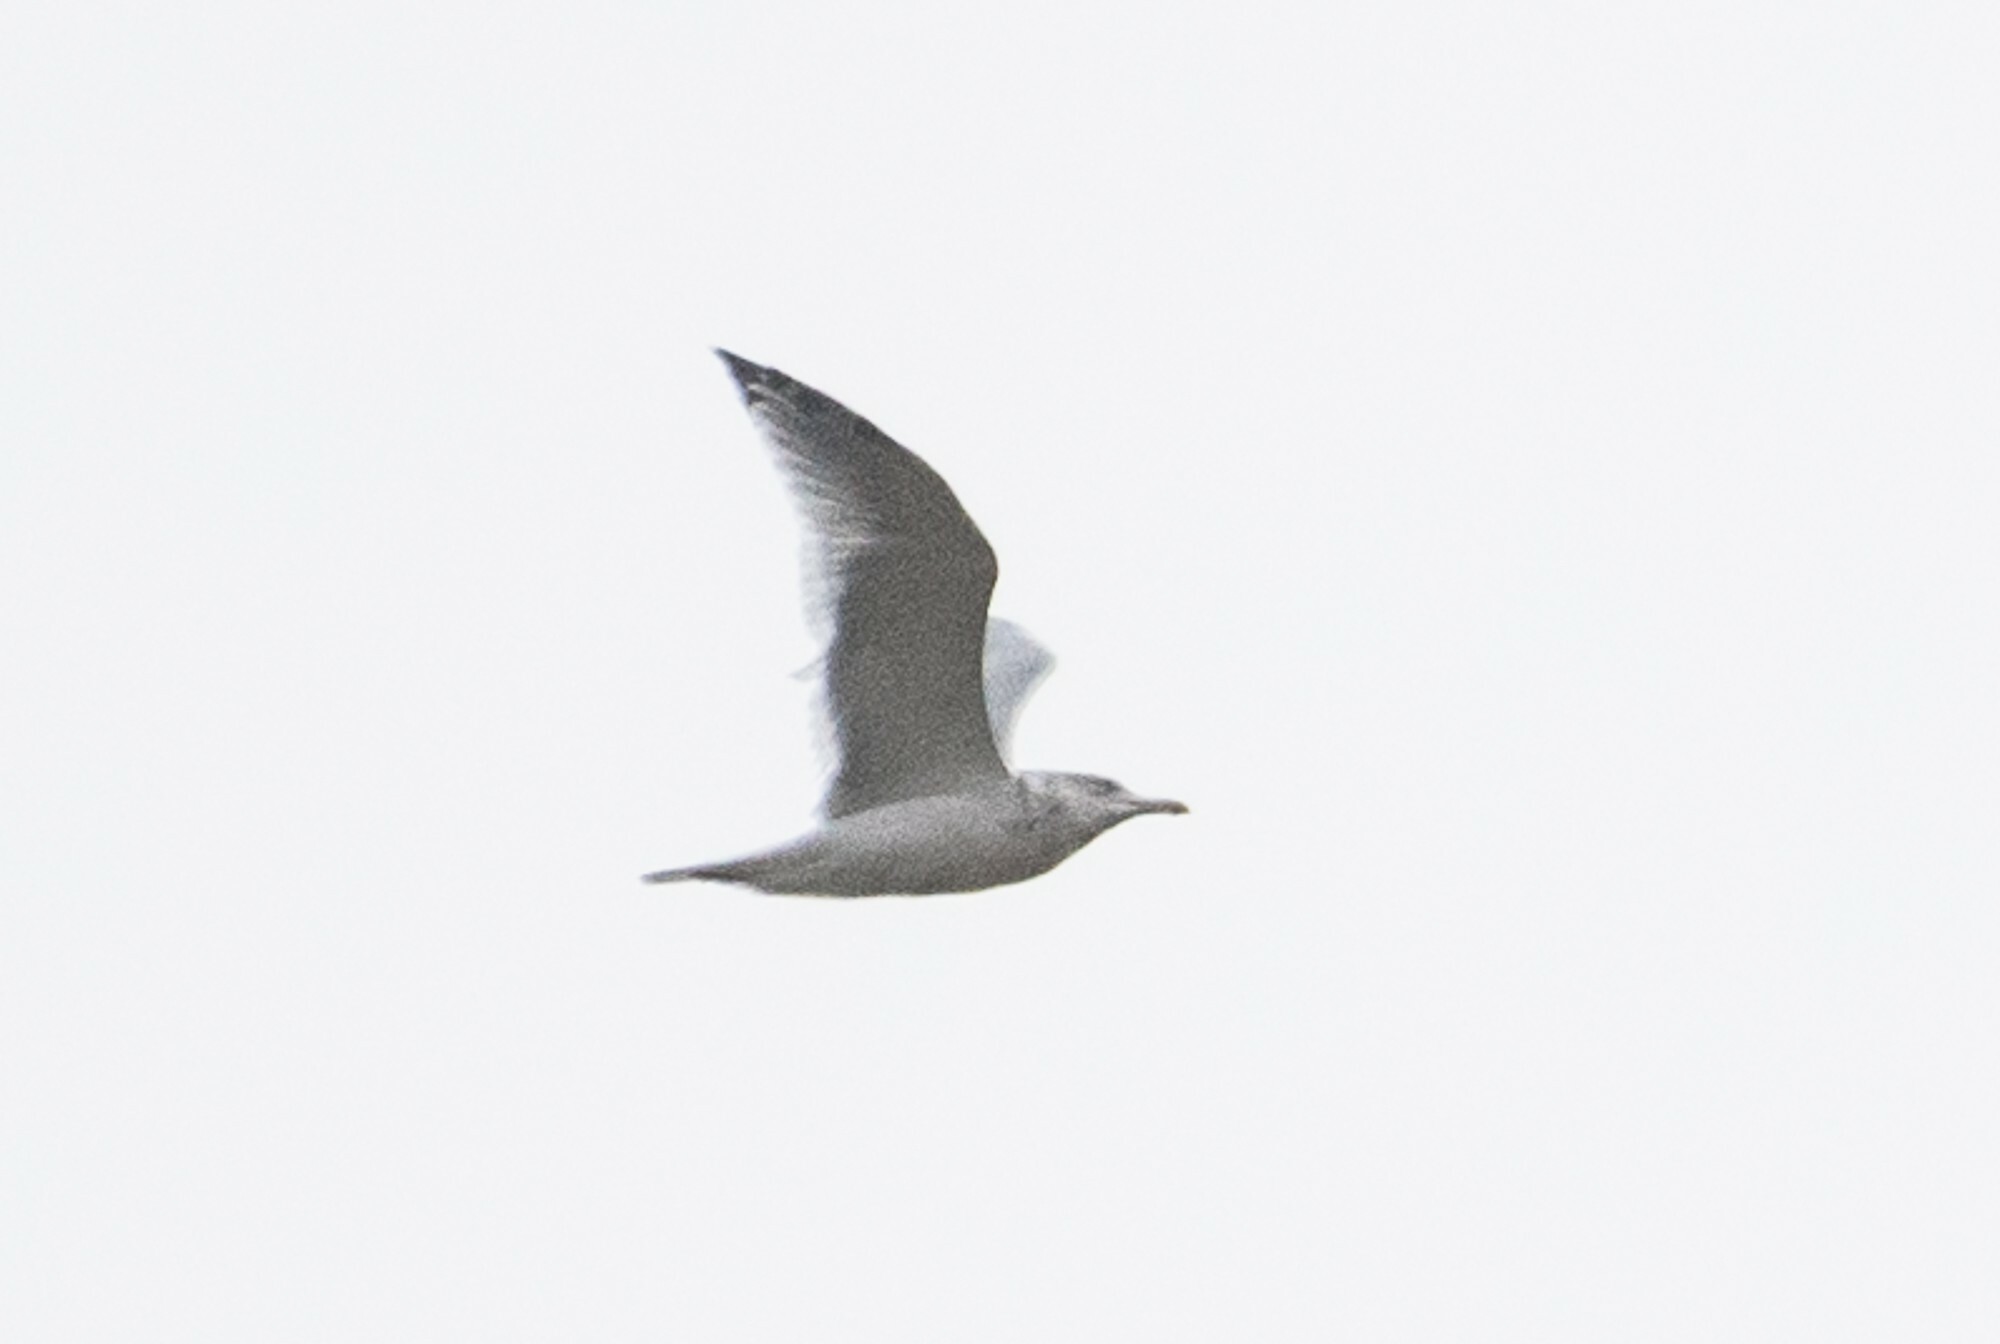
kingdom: Animalia
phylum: Chordata
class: Aves
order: Charadriiformes
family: Laridae
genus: Larus
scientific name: Larus argentatus
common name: Herring gull
